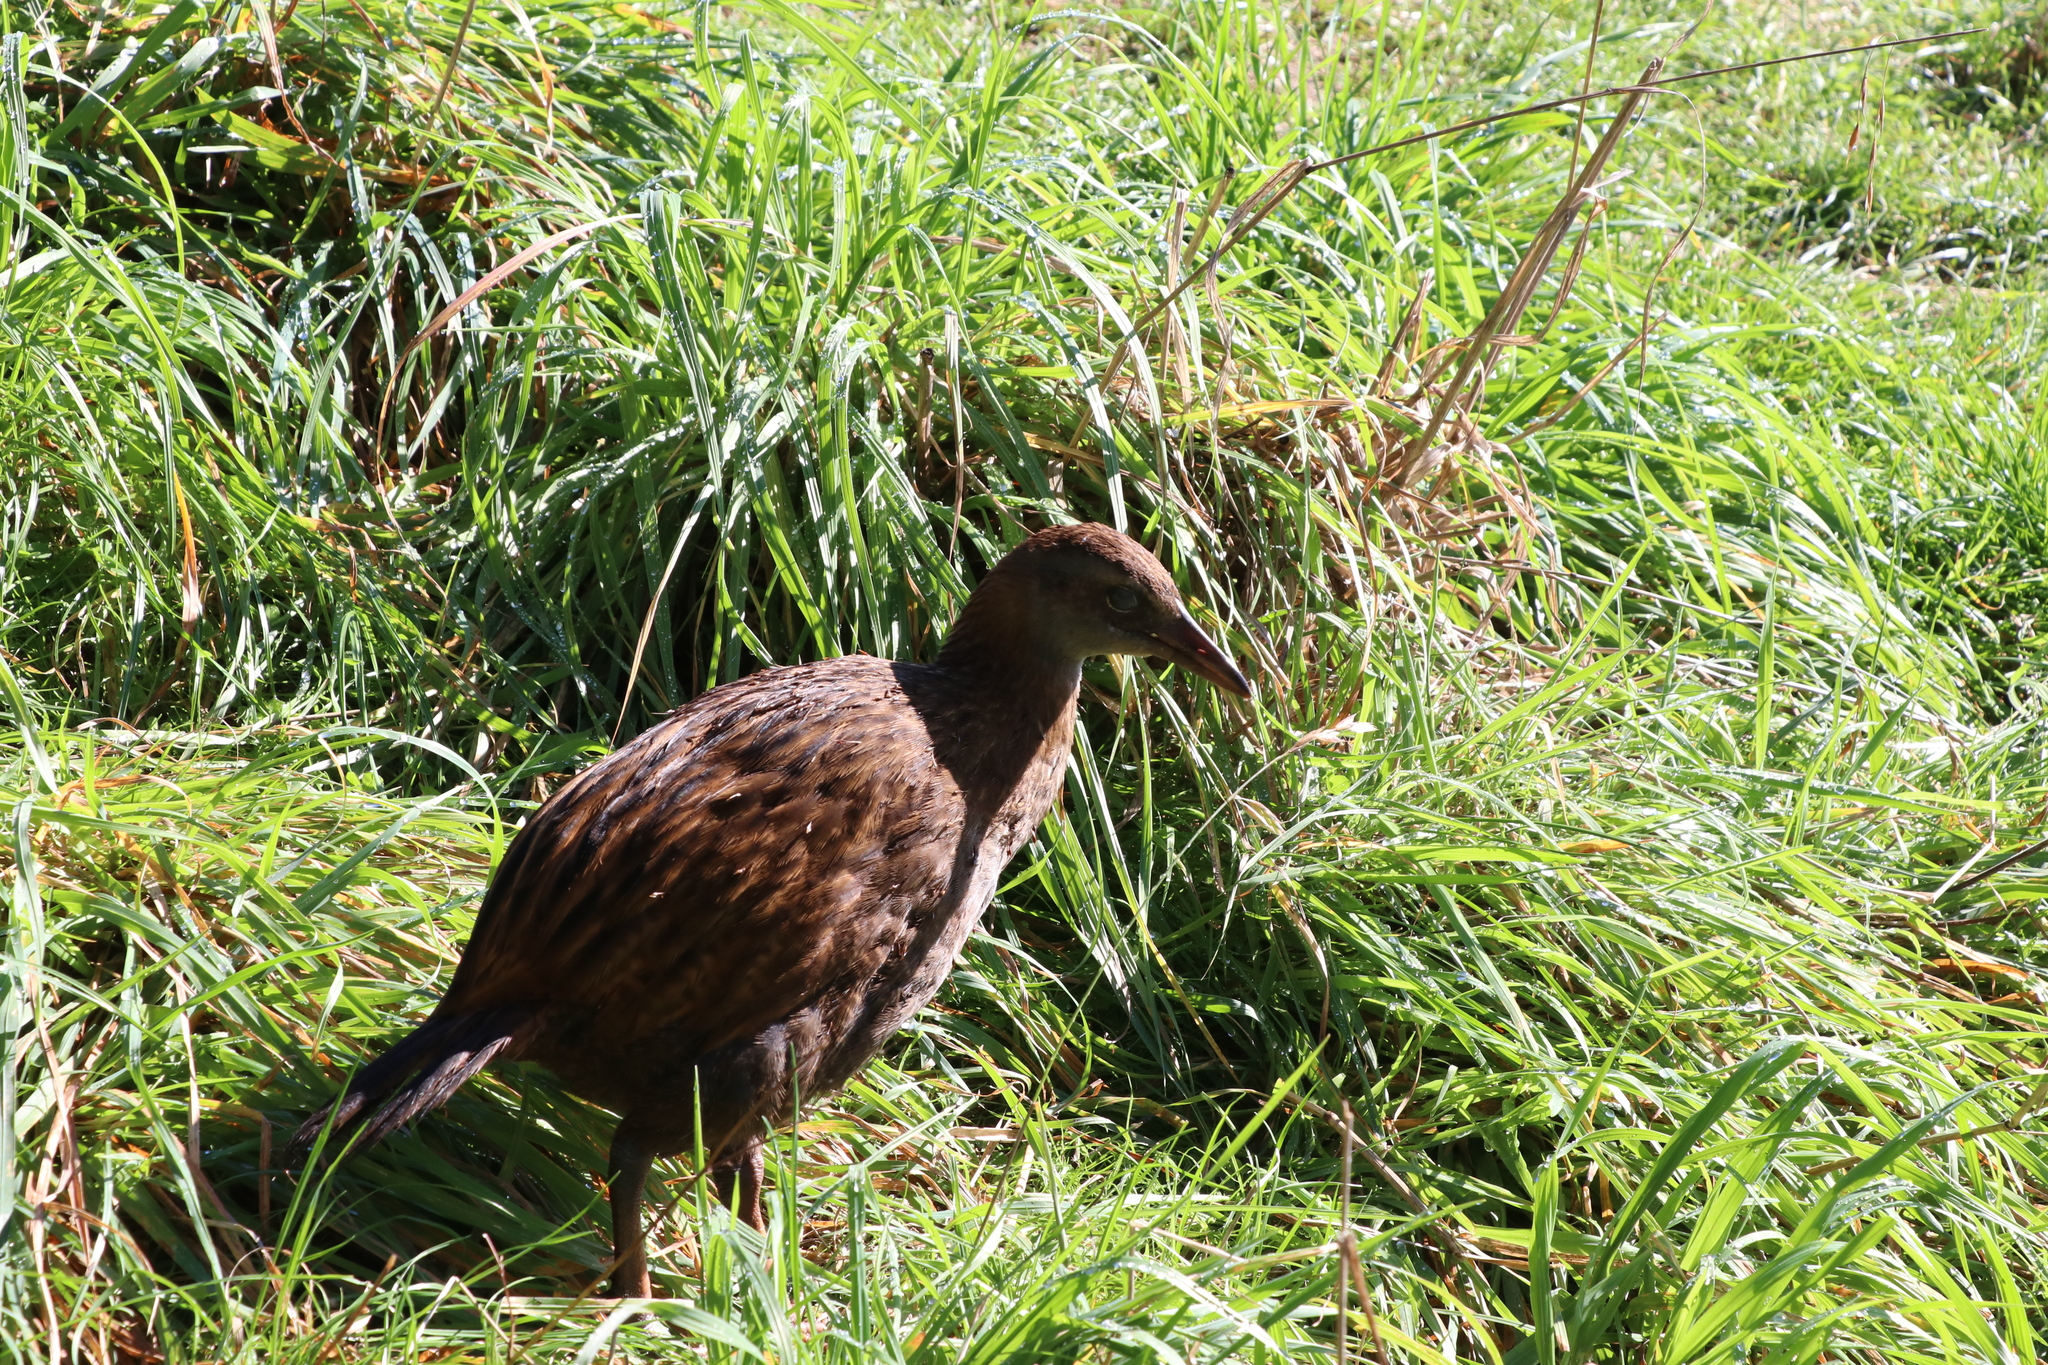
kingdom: Animalia
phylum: Chordata
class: Aves
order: Gruiformes
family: Rallidae
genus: Gallirallus
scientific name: Gallirallus australis
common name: Weka
